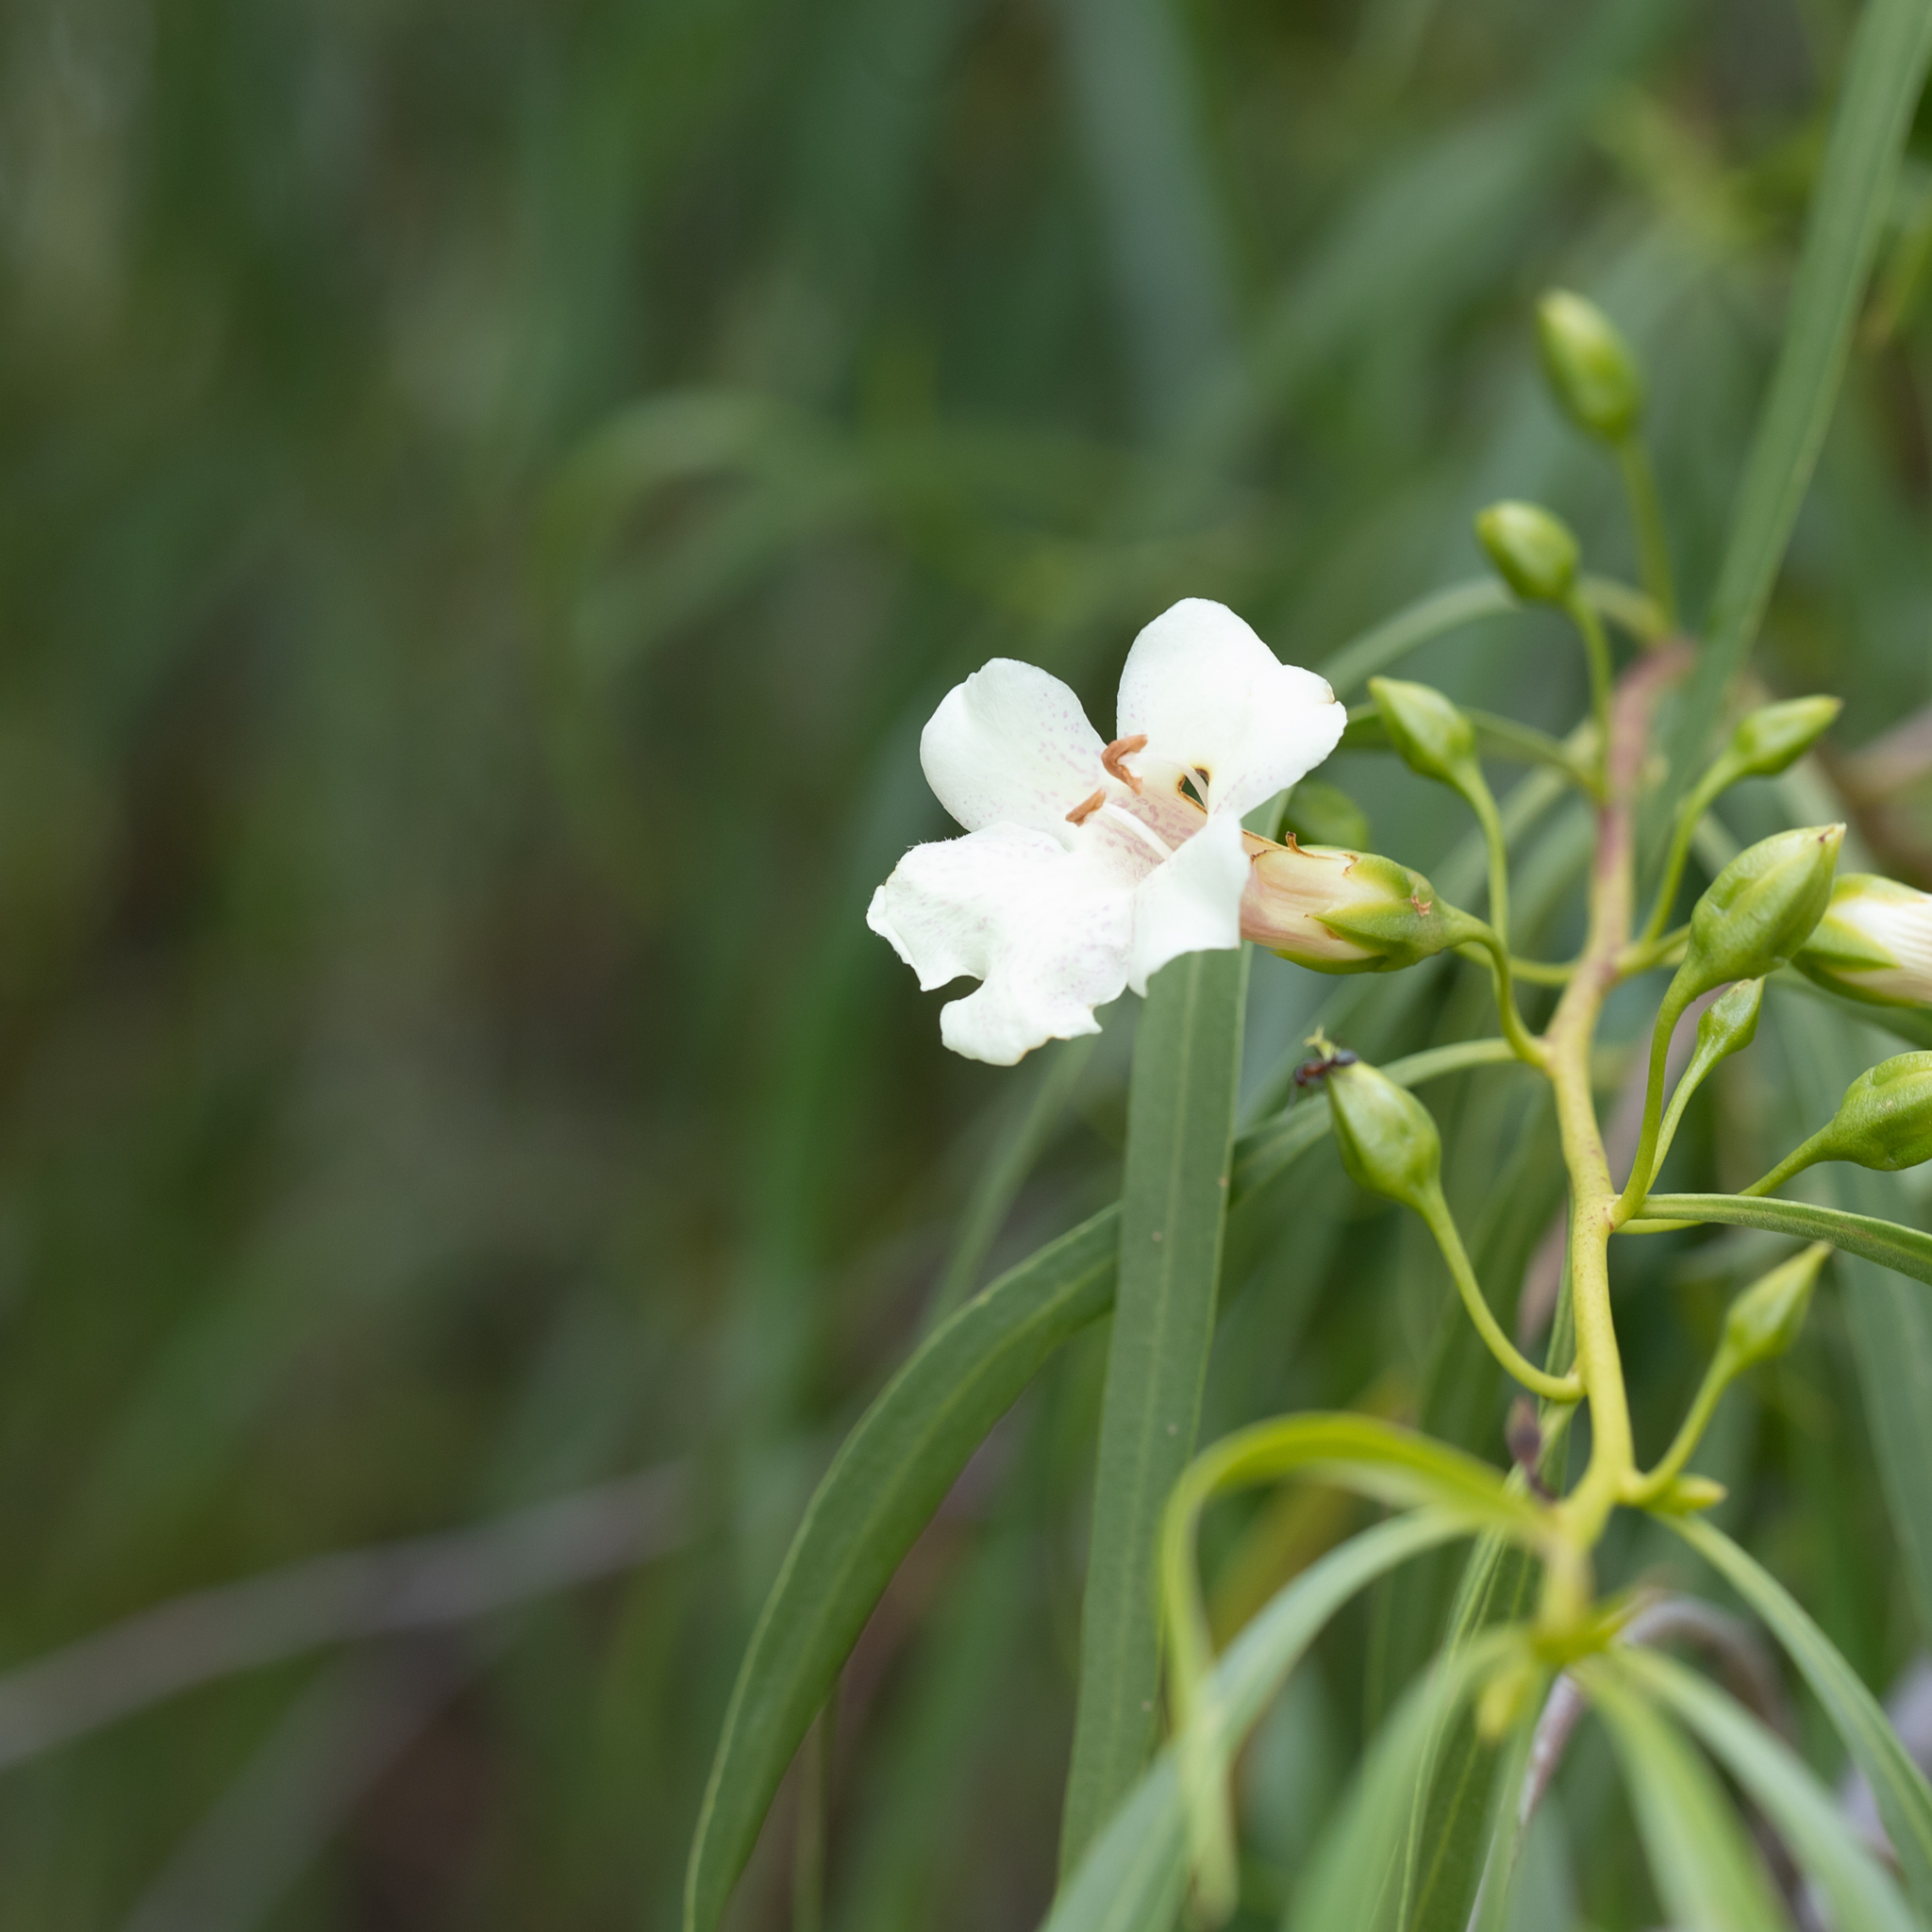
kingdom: Plantae
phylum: Tracheophyta
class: Magnoliopsida
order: Lamiales
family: Scrophulariaceae
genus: Eremophila
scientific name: Eremophila bignoniiflora
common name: Bignonia emu-bush
